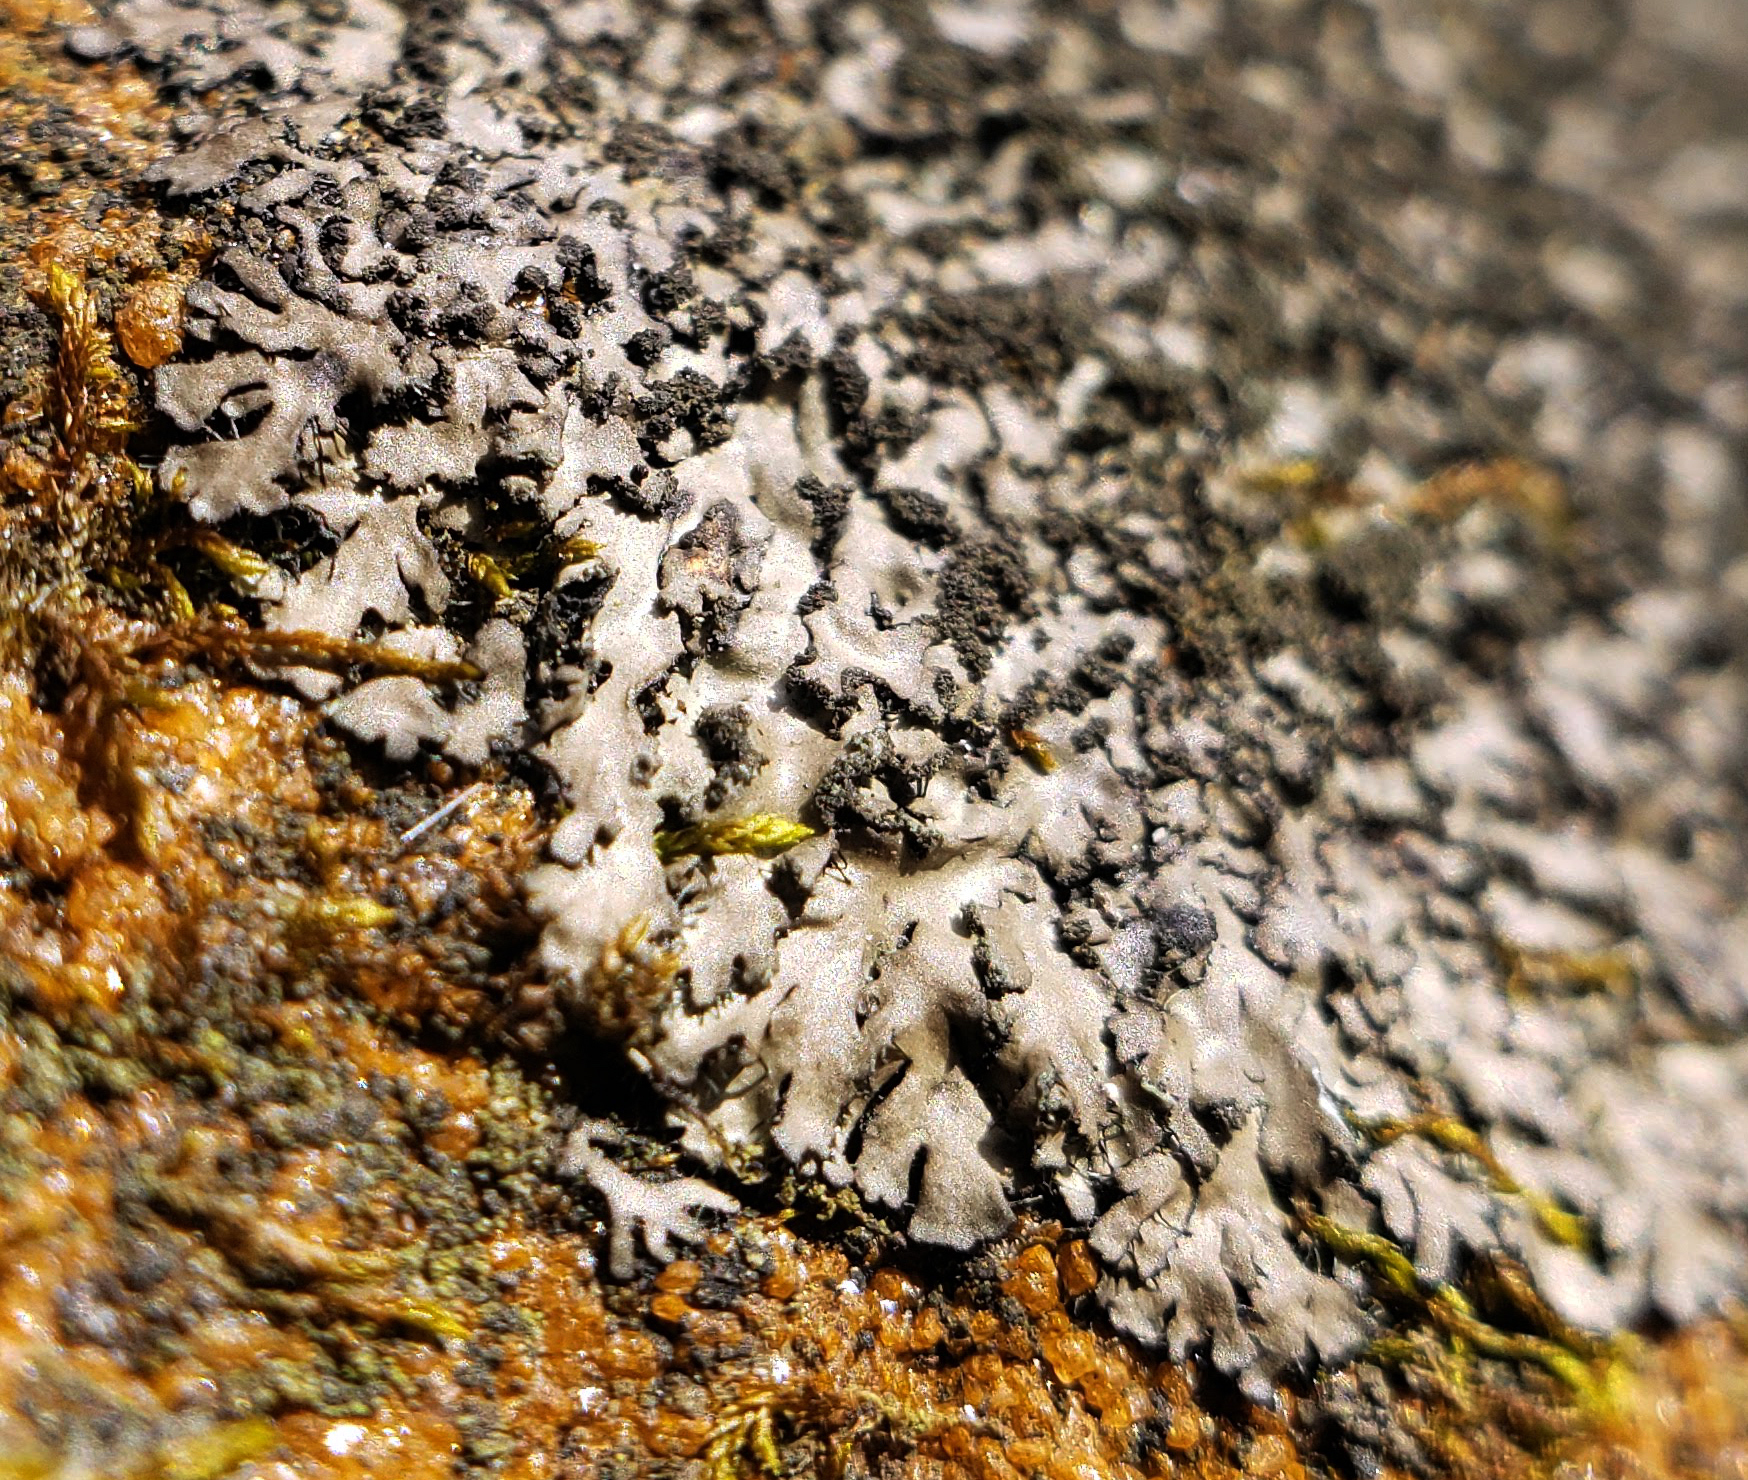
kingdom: Fungi
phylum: Ascomycota
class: Lecanoromycetes
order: Caliciales
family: Physciaceae
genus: Phaeophyscia
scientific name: Phaeophyscia adiastola
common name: Powder-tipped shadow lichen
